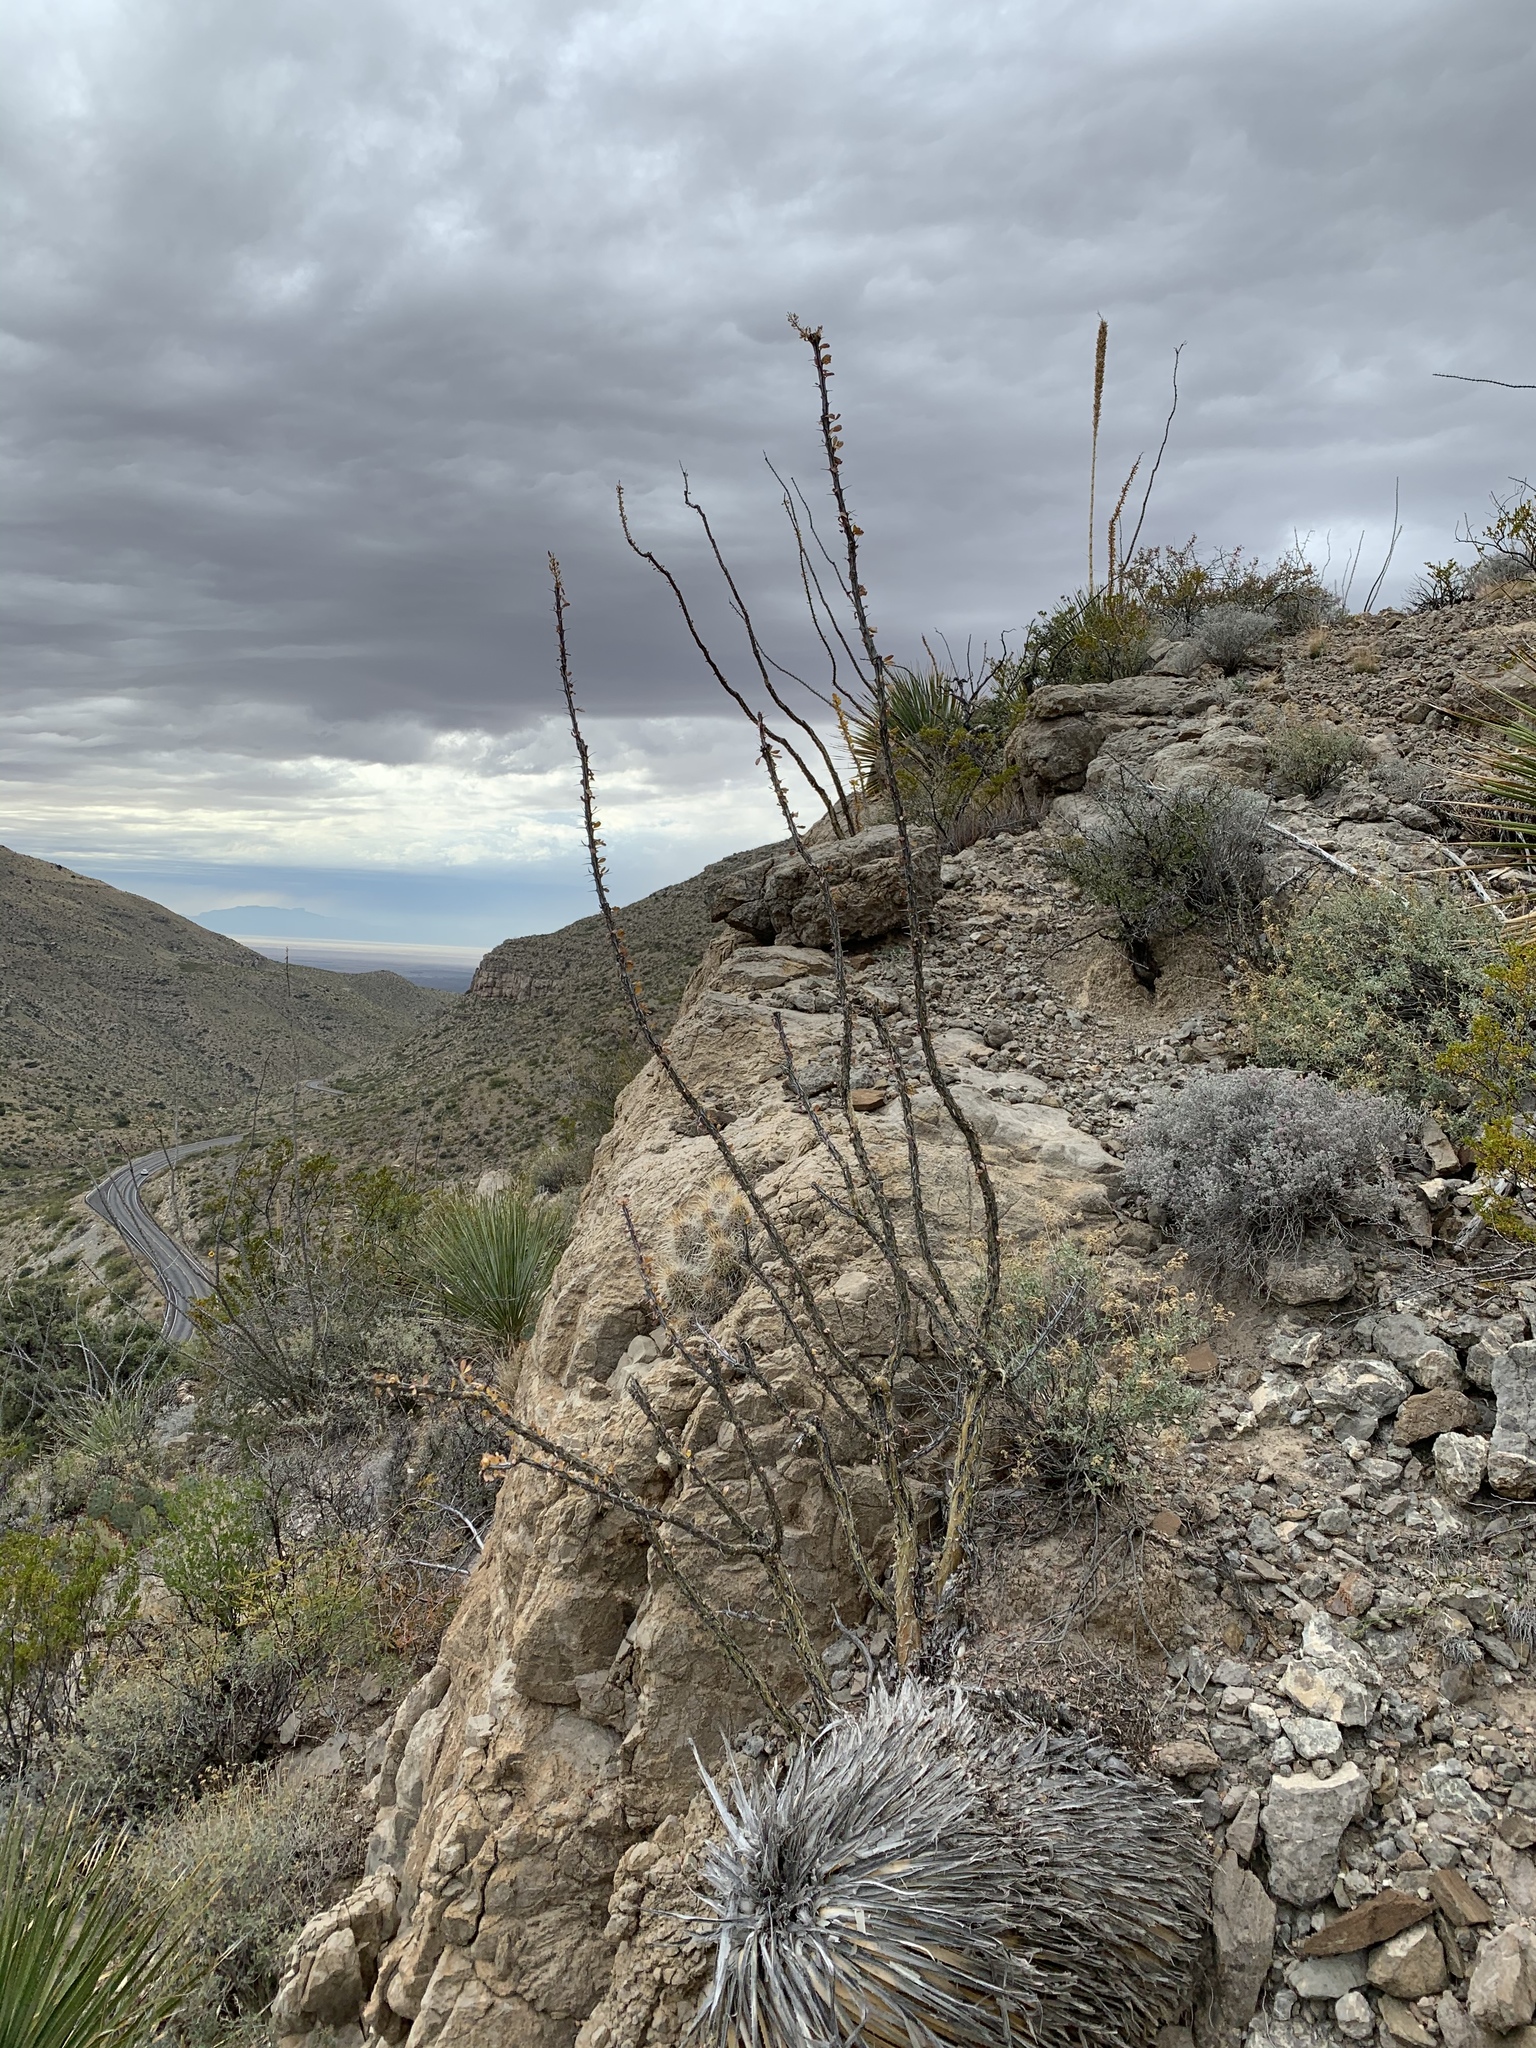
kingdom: Plantae
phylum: Tracheophyta
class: Magnoliopsida
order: Ericales
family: Fouquieriaceae
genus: Fouquieria
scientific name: Fouquieria splendens
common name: Vine-cactus
